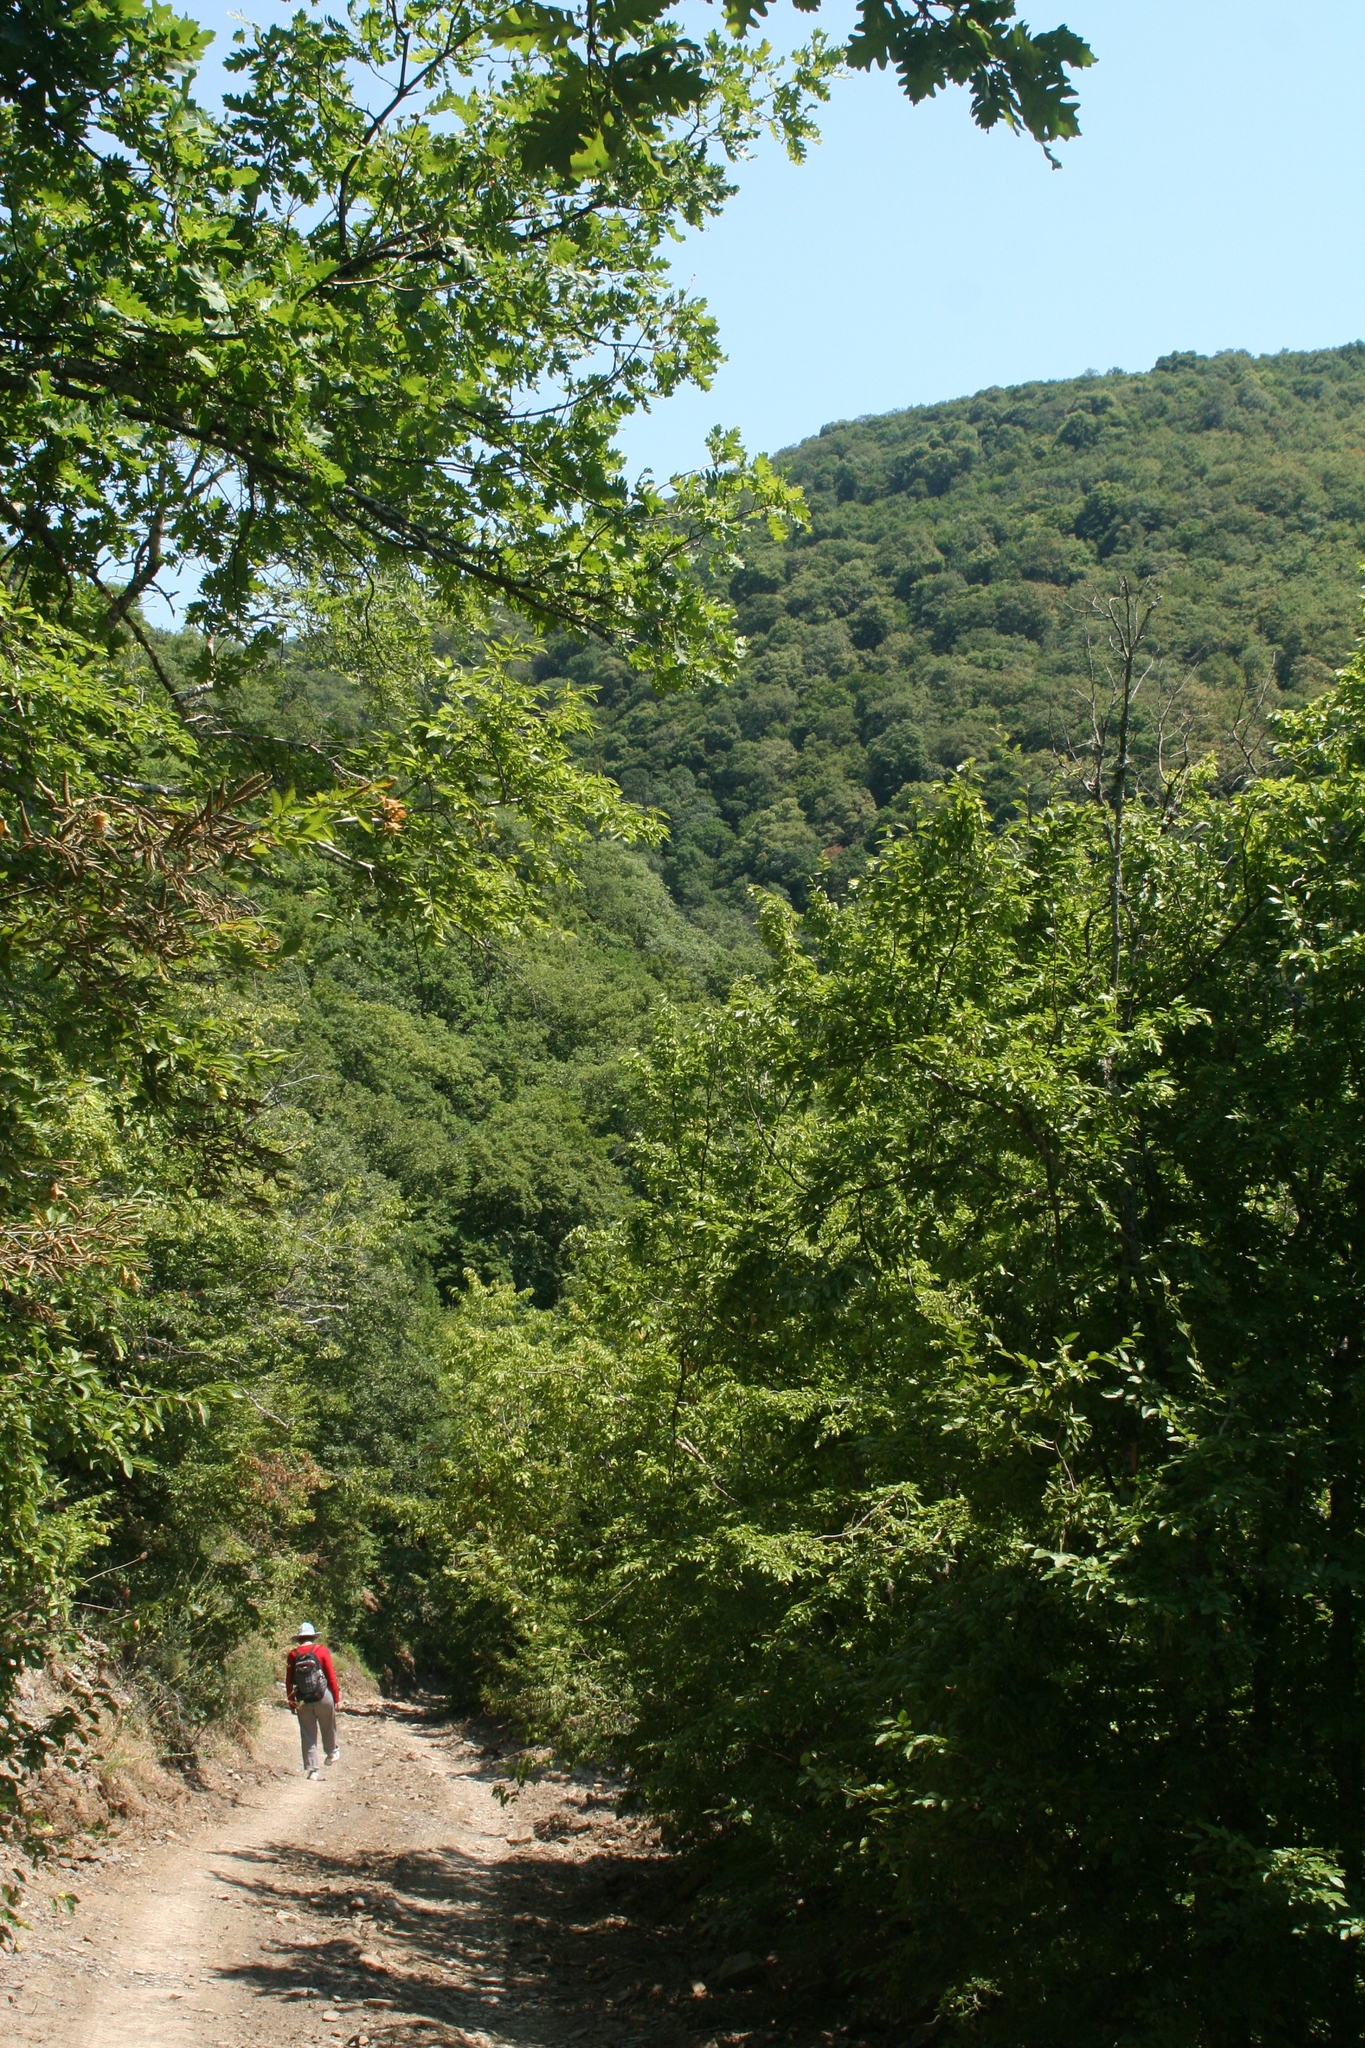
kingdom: Plantae
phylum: Tracheophyta
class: Magnoliopsida
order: Fagales
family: Fagaceae
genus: Quercus
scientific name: Quercus pubescens
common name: Downy oak
